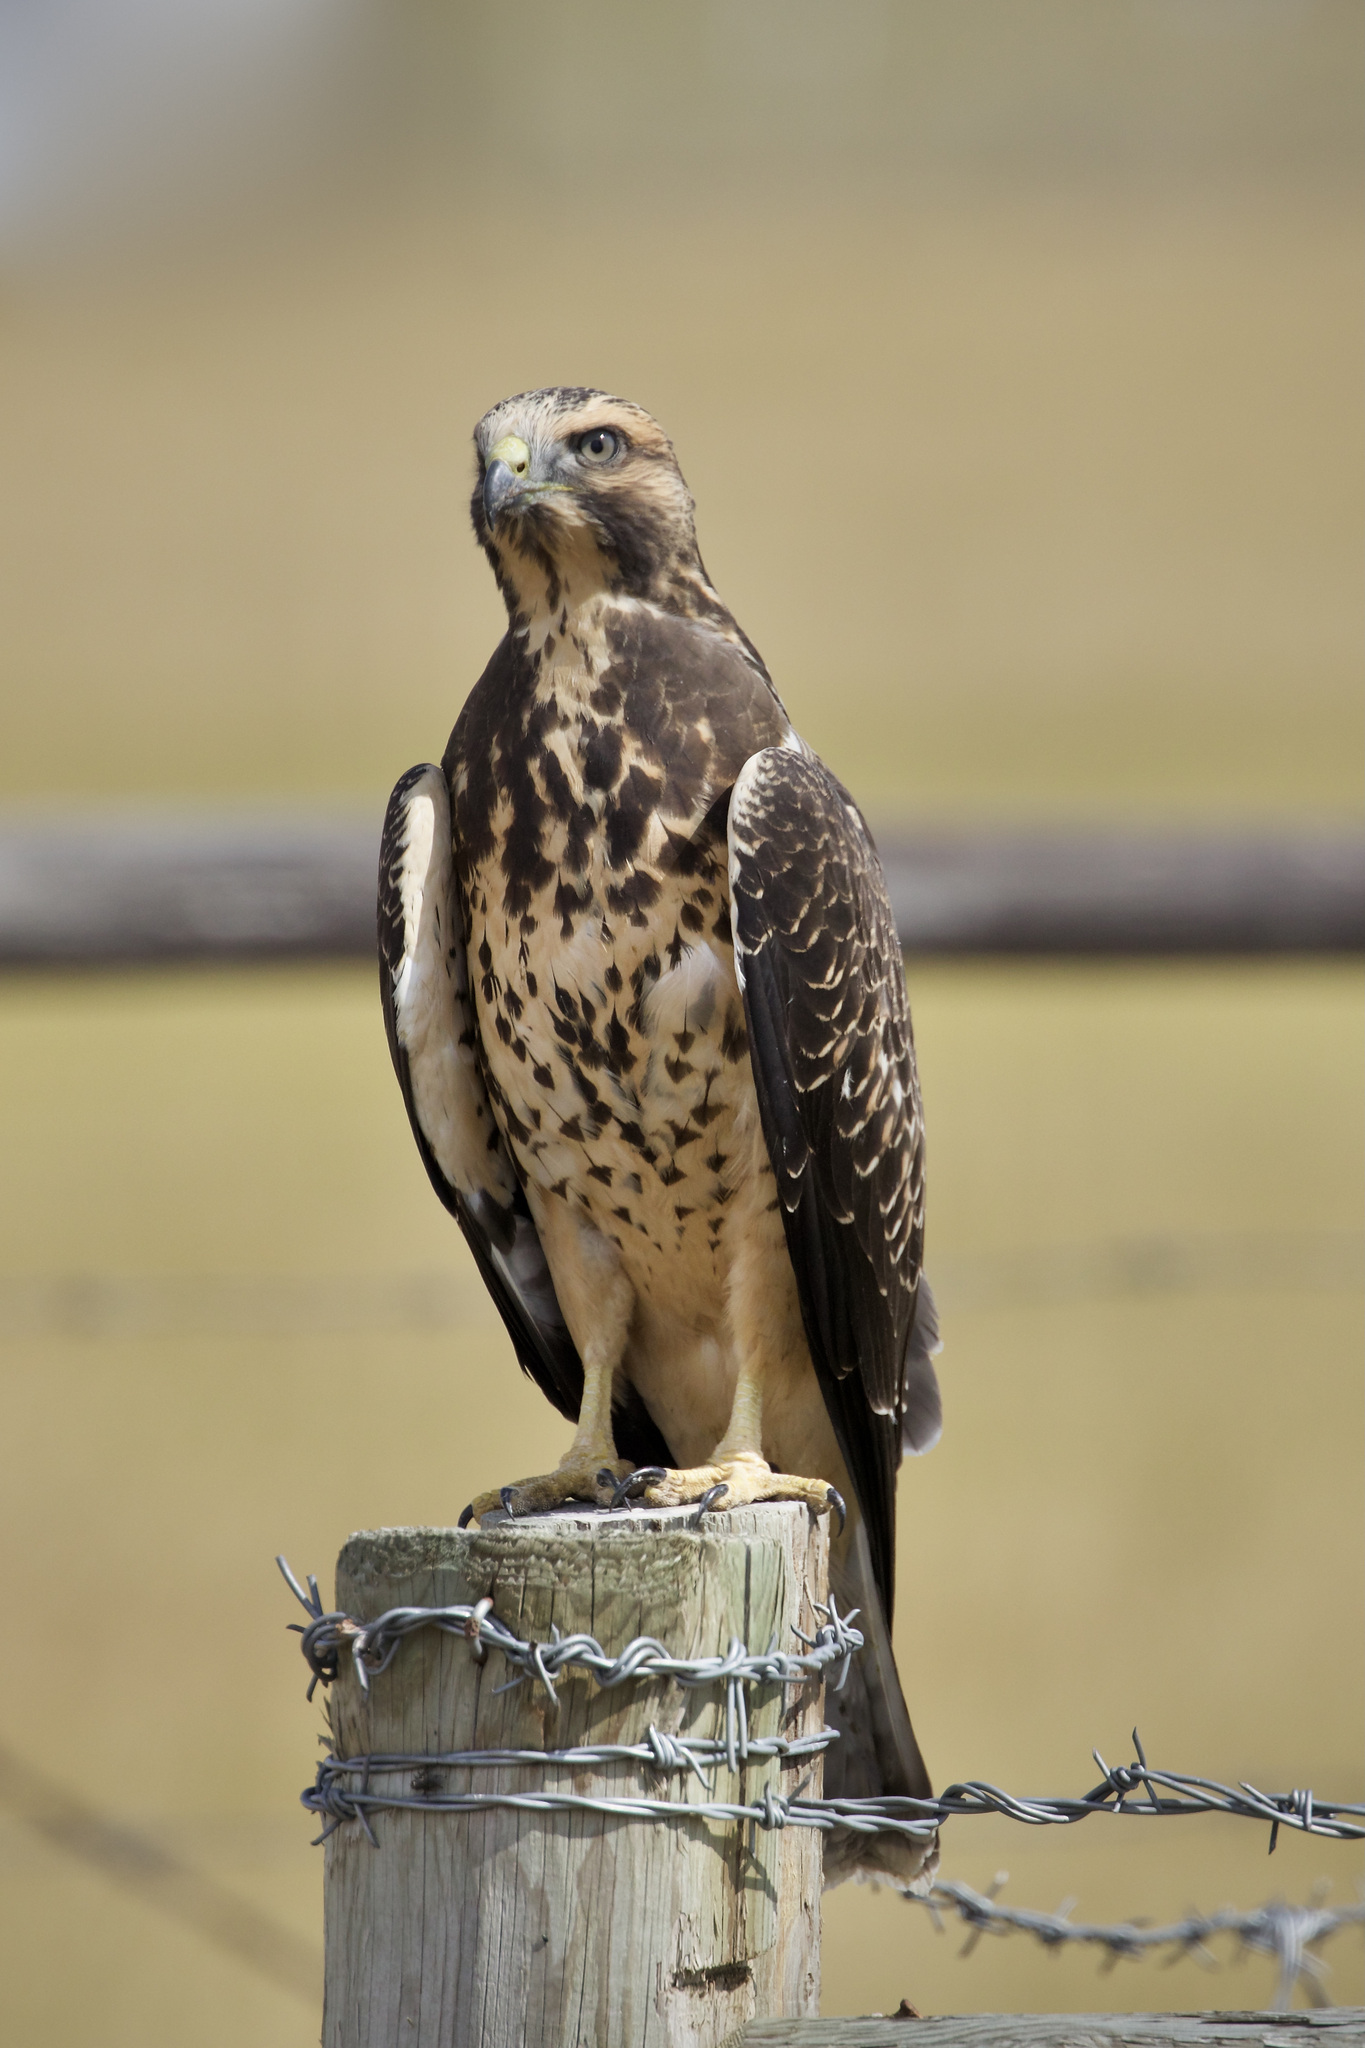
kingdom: Animalia
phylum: Chordata
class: Aves
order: Accipitriformes
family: Accipitridae
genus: Buteo
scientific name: Buteo swainsoni
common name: Swainson's hawk
